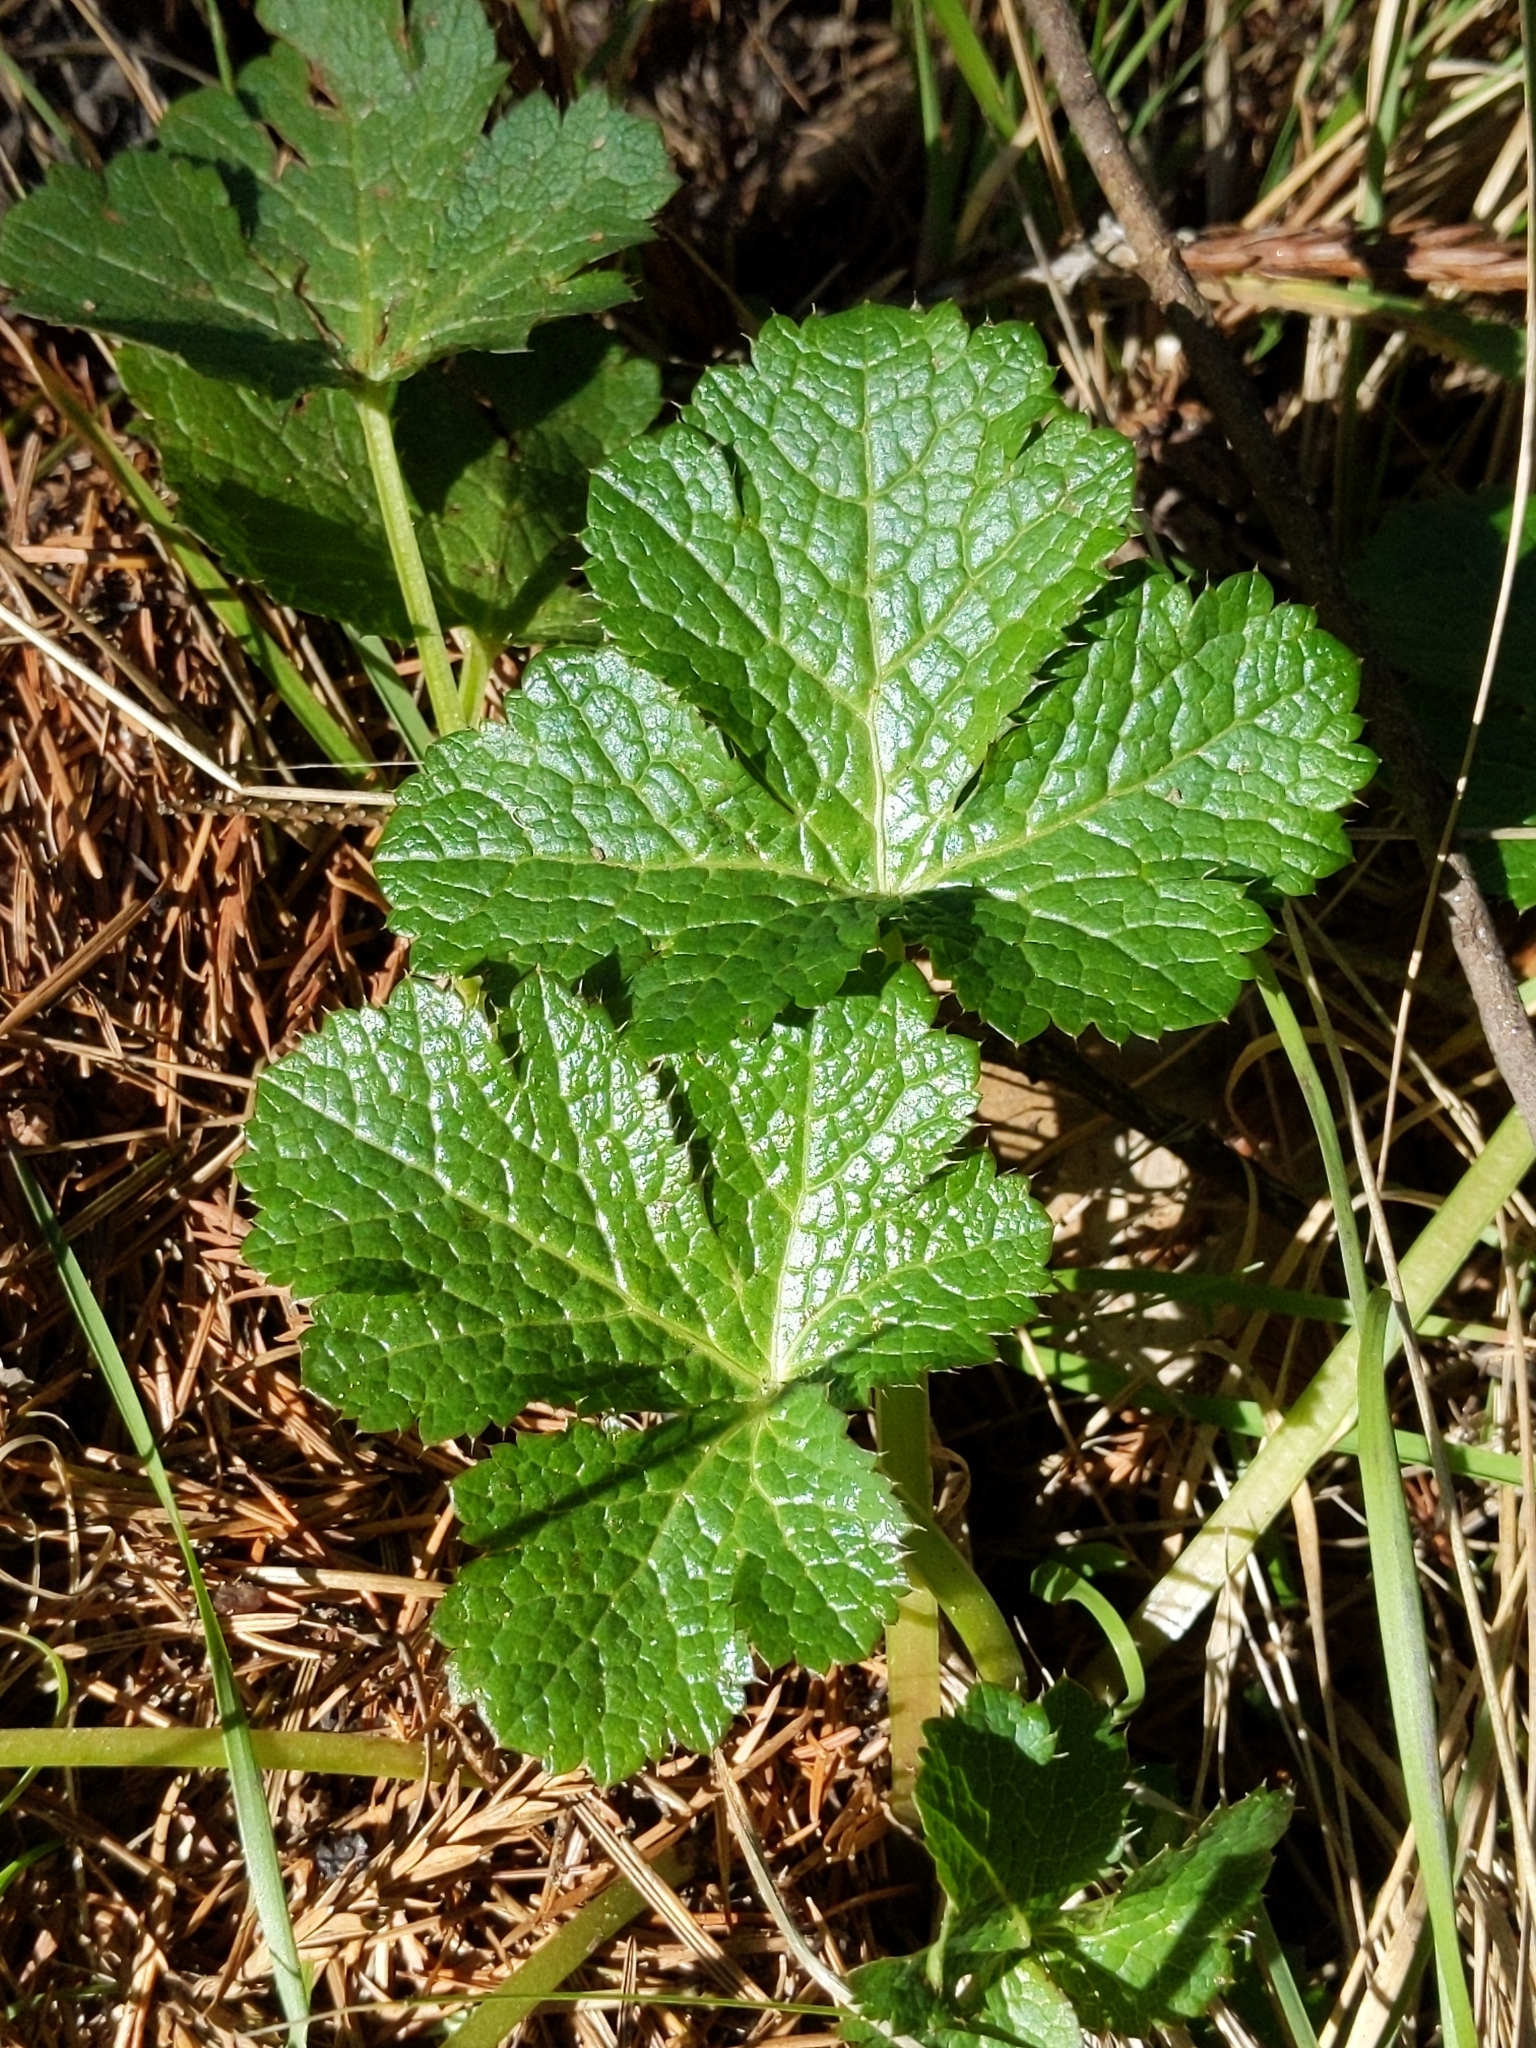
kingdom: Plantae
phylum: Tracheophyta
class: Magnoliopsida
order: Apiales
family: Apiaceae
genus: Sanicula
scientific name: Sanicula crassicaulis
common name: Western snakeroot
